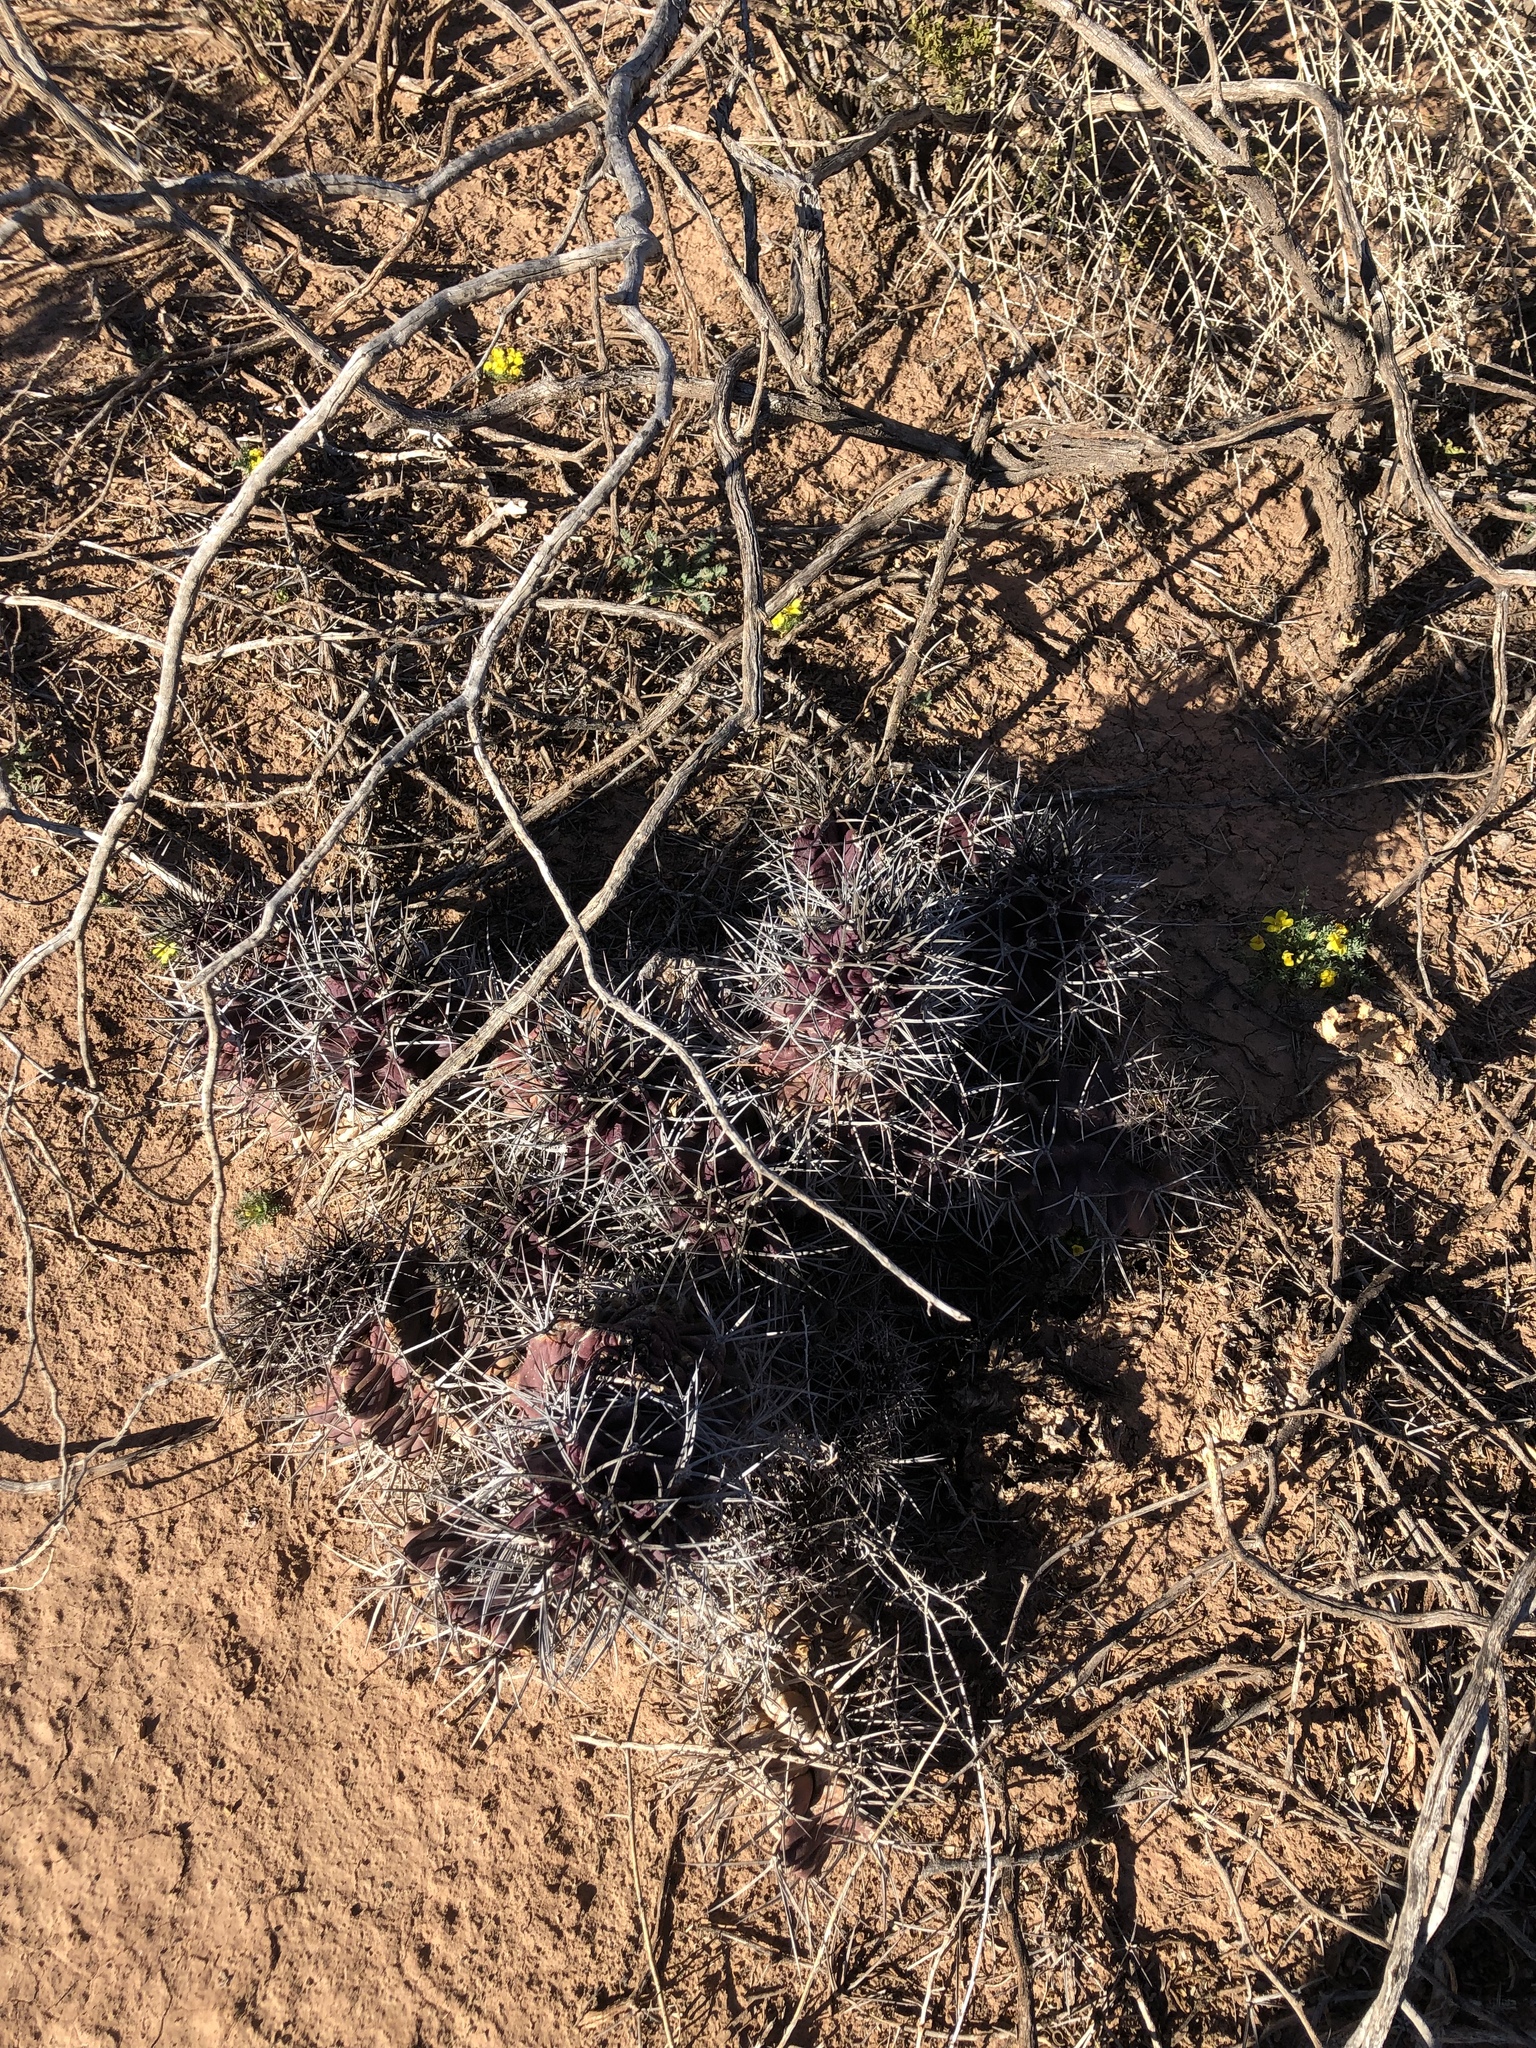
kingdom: Plantae
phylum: Tracheophyta
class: Magnoliopsida
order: Caryophyllales
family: Cactaceae
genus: Echinocereus
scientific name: Echinocereus triglochidiatus
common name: Claretcup hedgehog
